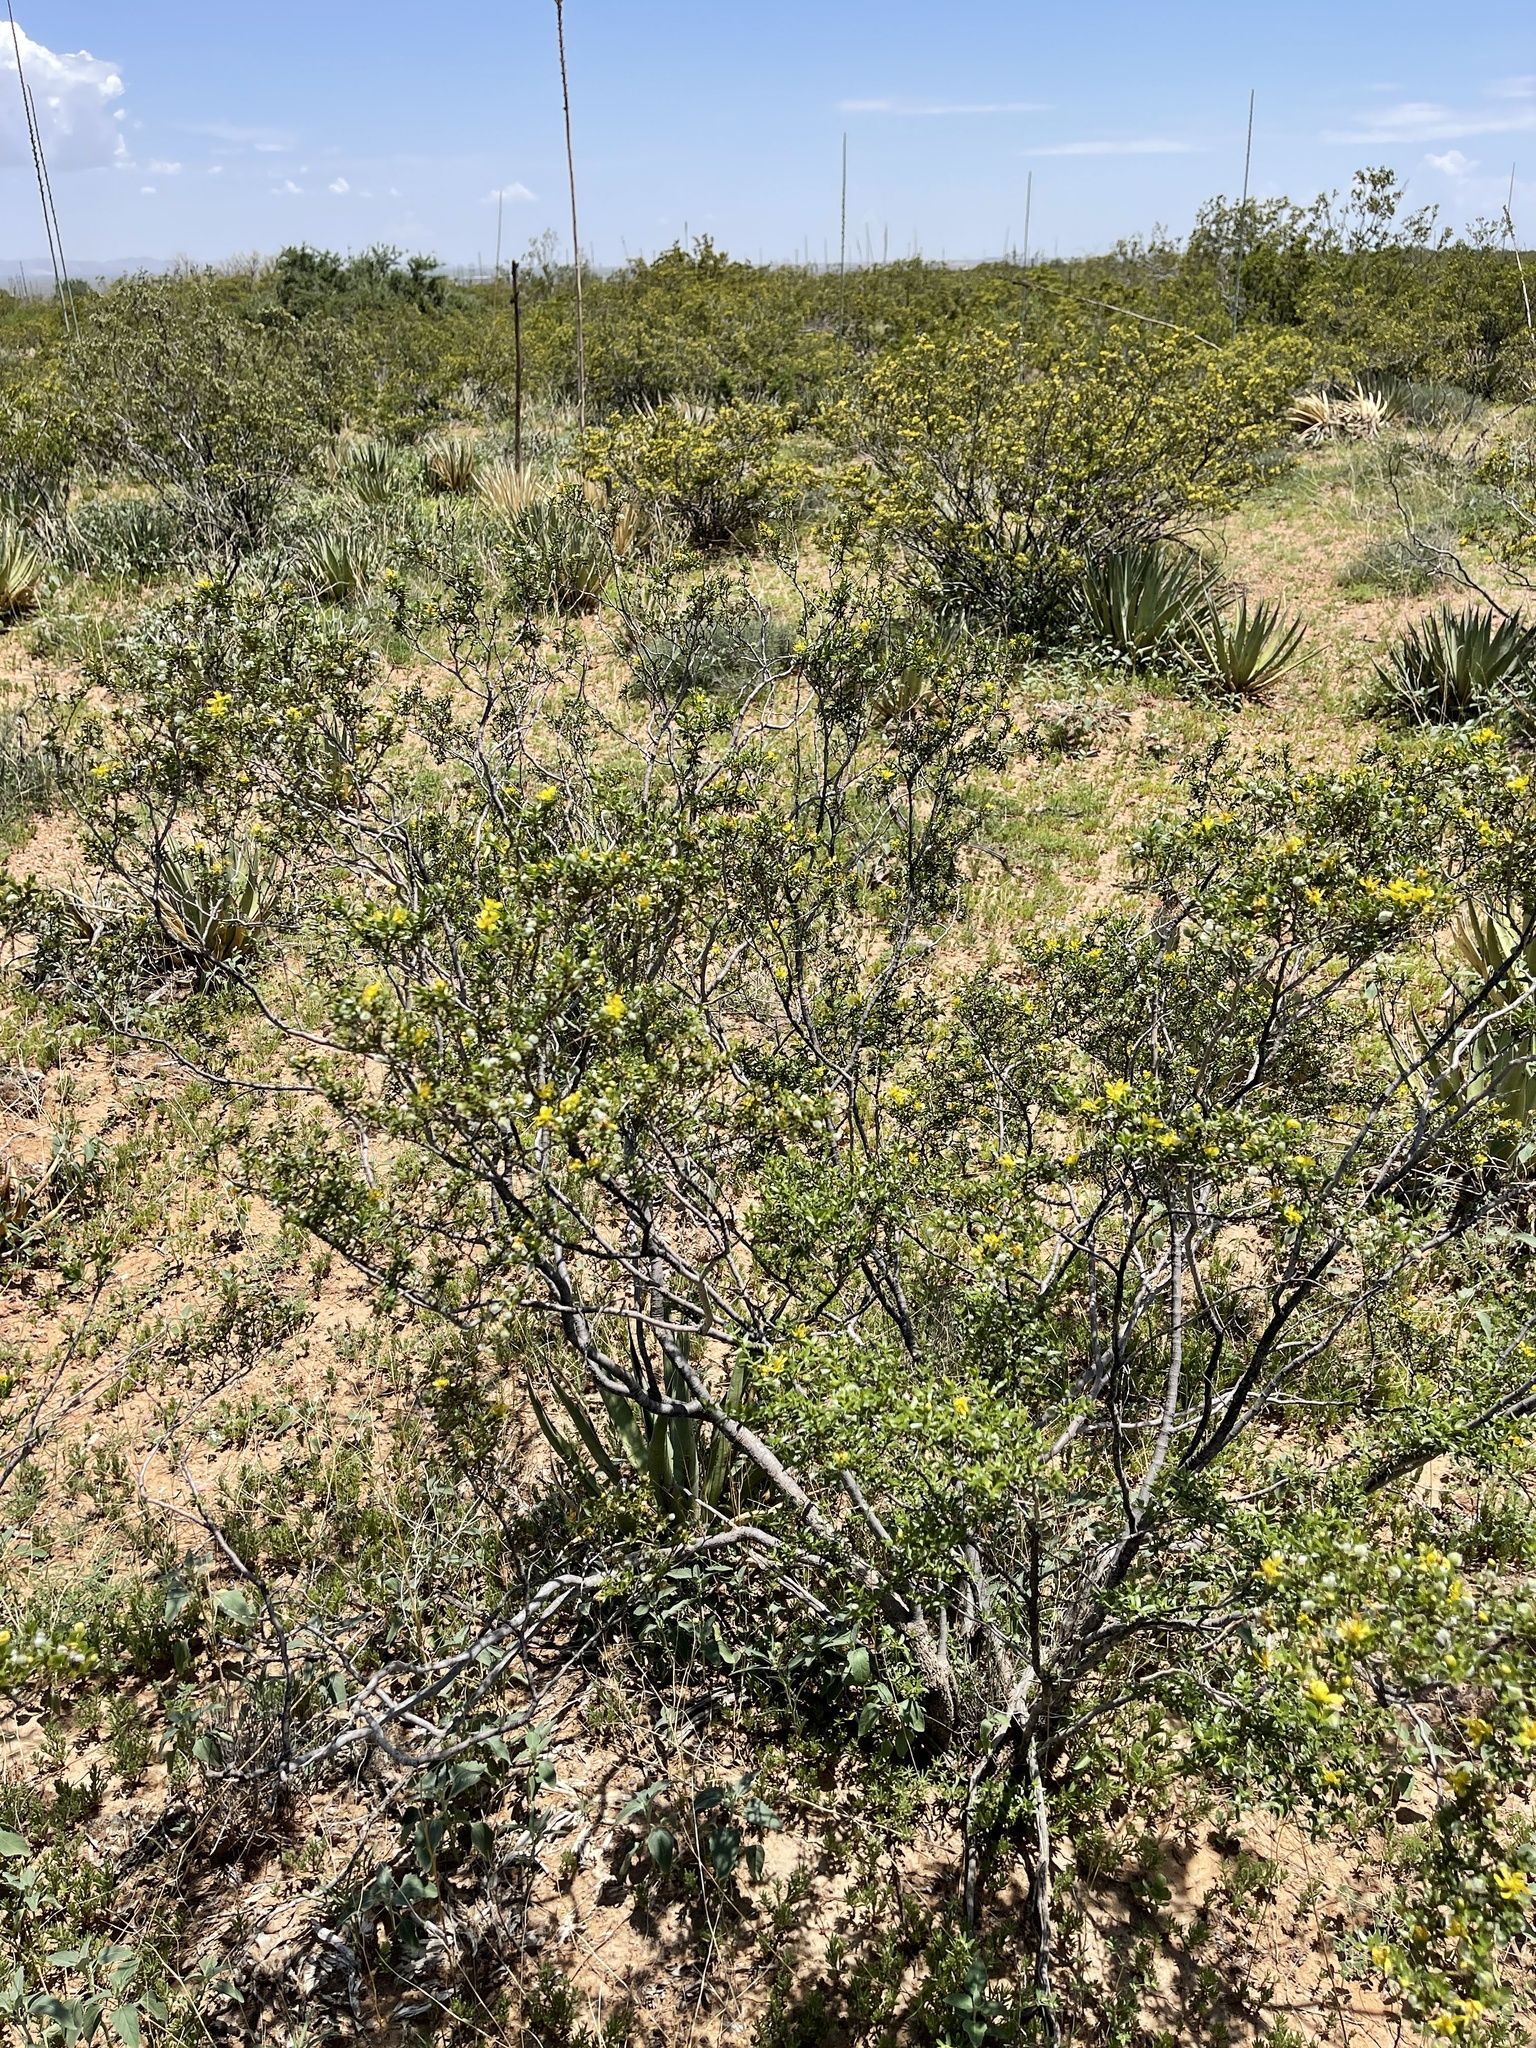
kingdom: Plantae
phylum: Tracheophyta
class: Magnoliopsida
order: Zygophyllales
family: Zygophyllaceae
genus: Larrea
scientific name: Larrea tridentata
